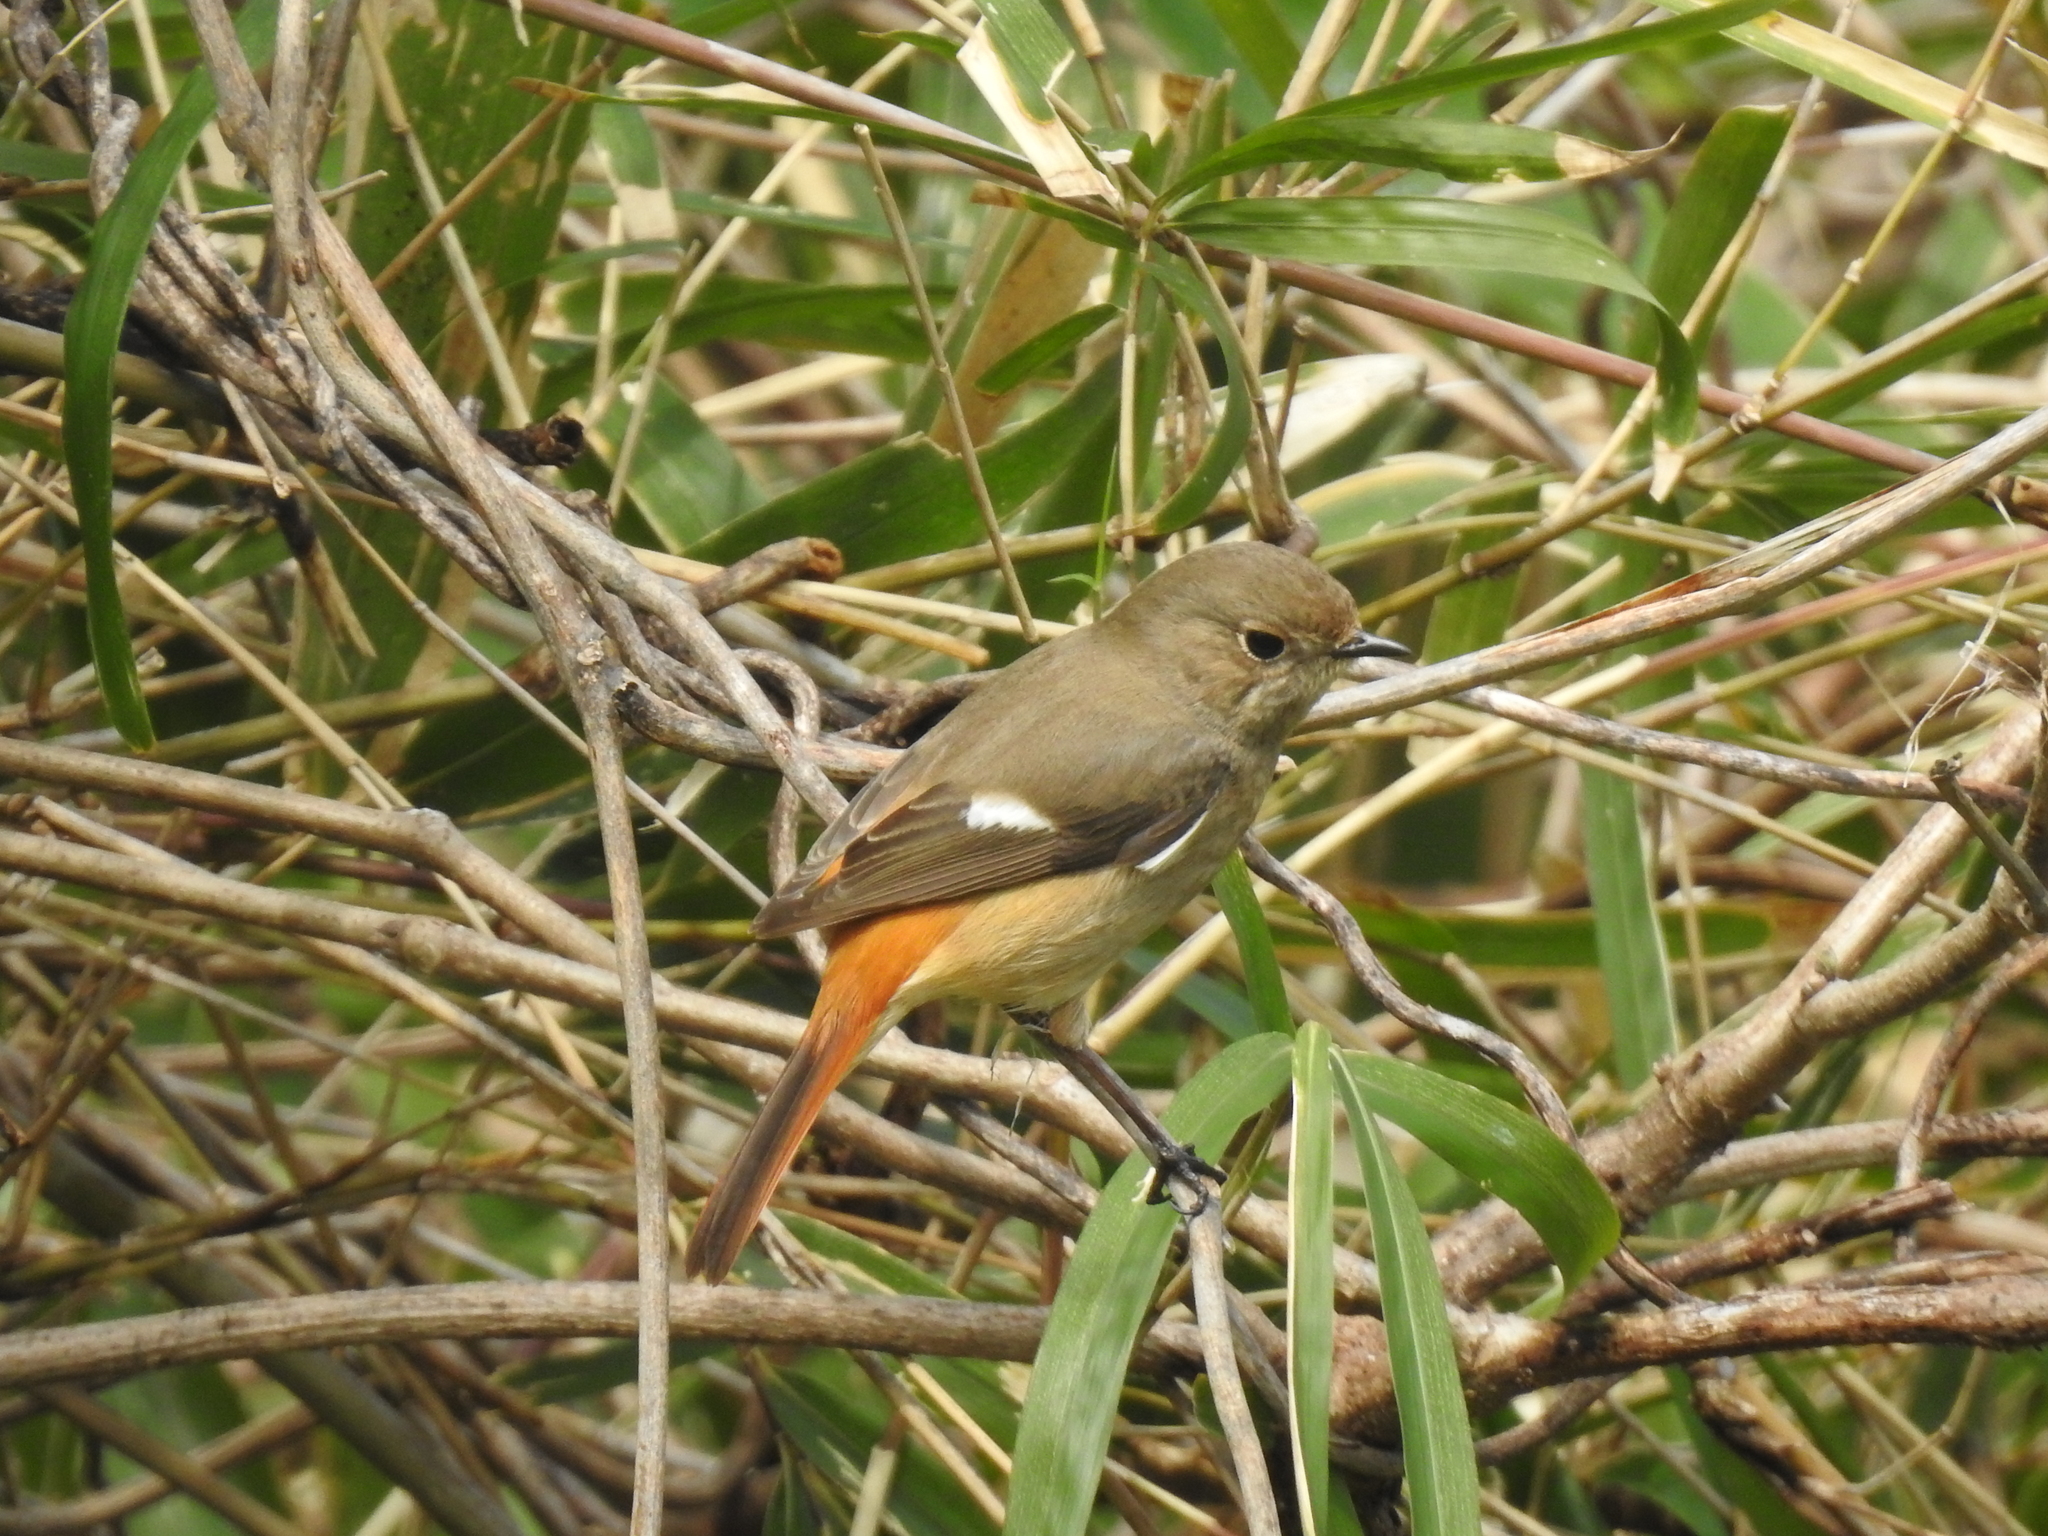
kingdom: Animalia
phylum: Chordata
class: Aves
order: Passeriformes
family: Muscicapidae
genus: Phoenicurus
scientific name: Phoenicurus auroreus
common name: Daurian redstart
